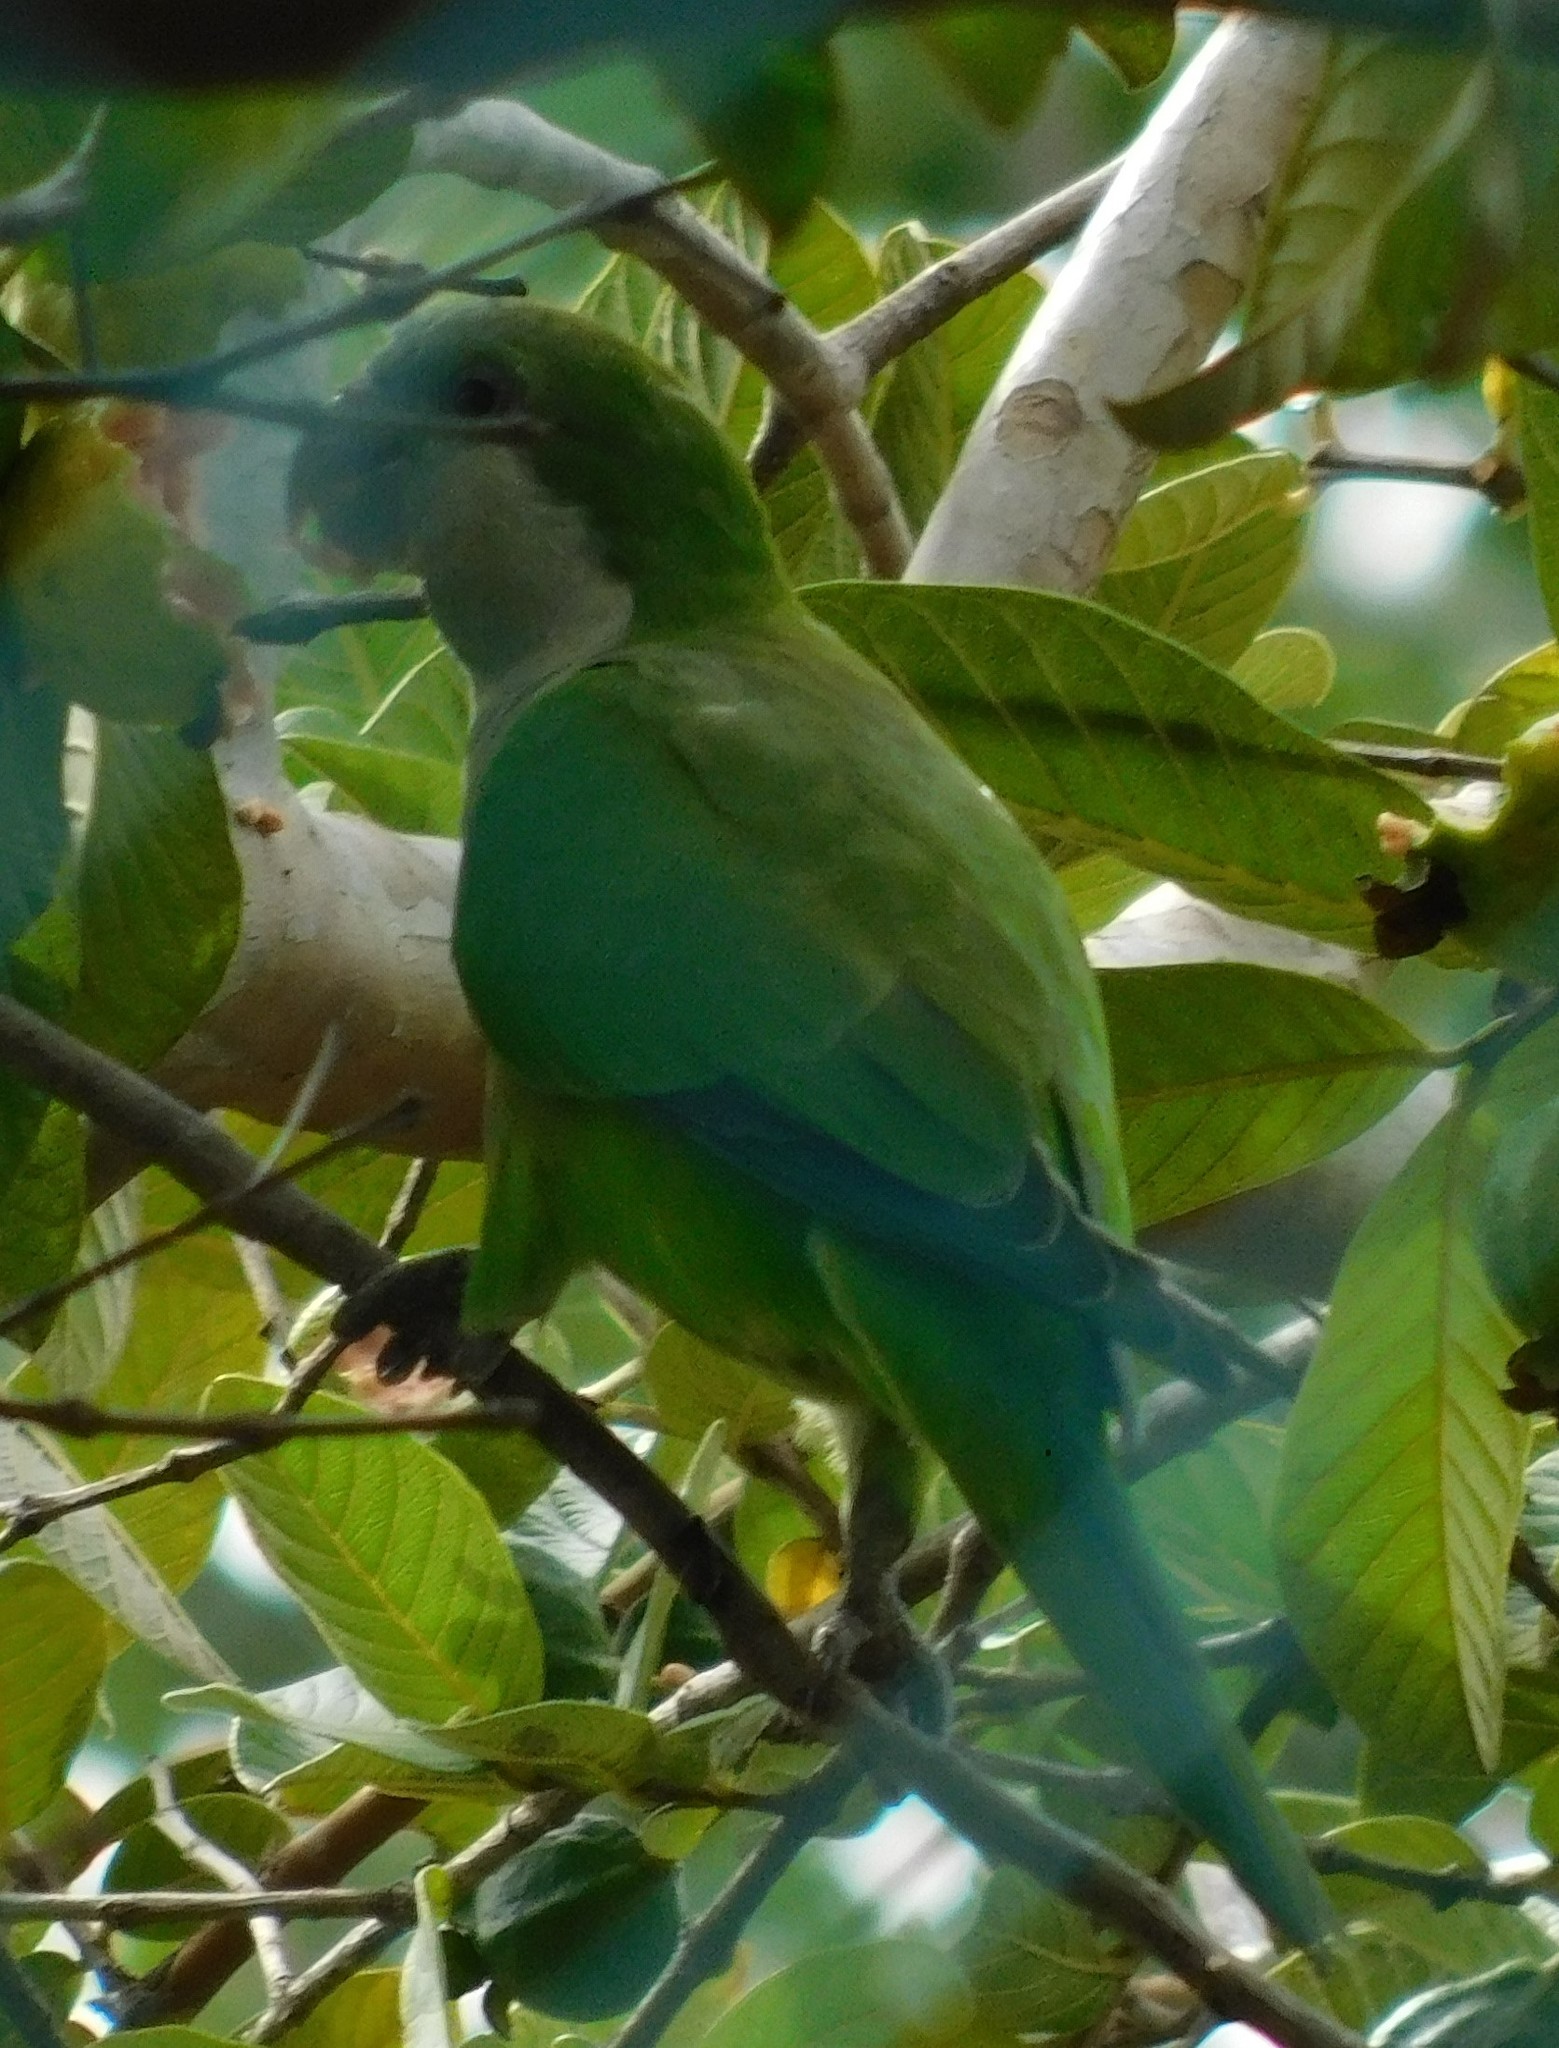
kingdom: Animalia
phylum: Chordata
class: Aves
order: Psittaciformes
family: Psittacidae
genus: Myiopsitta
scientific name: Myiopsitta monachus
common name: Monk parakeet
